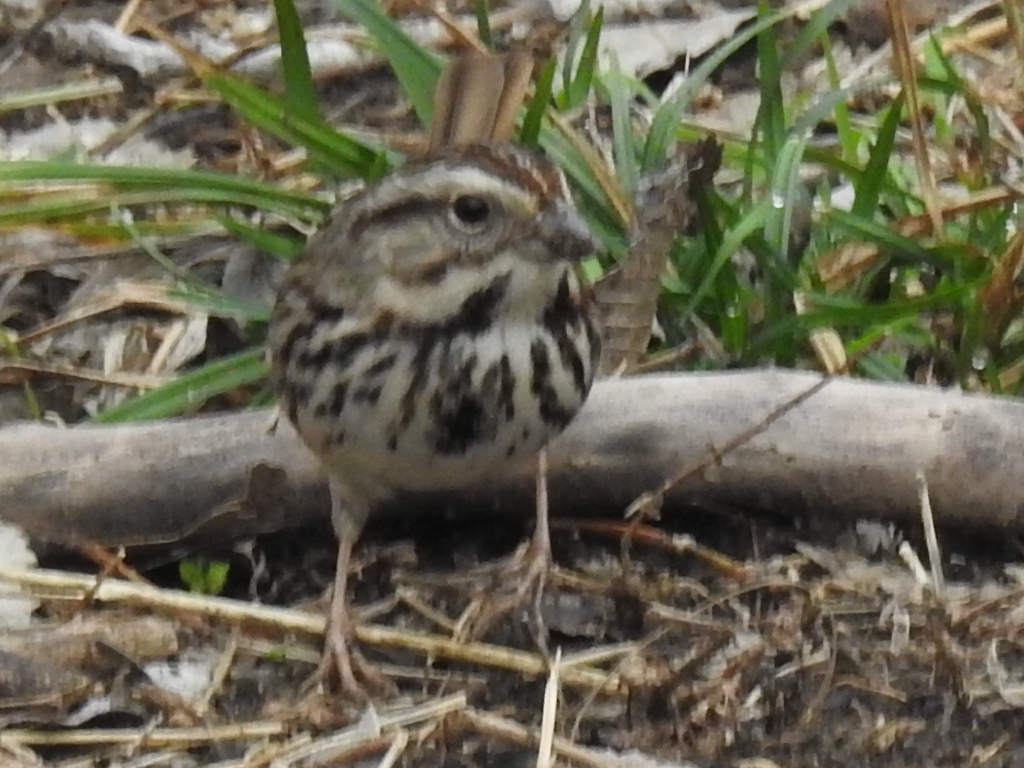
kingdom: Animalia
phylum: Chordata
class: Aves
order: Passeriformes
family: Passerellidae
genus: Melospiza
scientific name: Melospiza melodia
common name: Song sparrow
